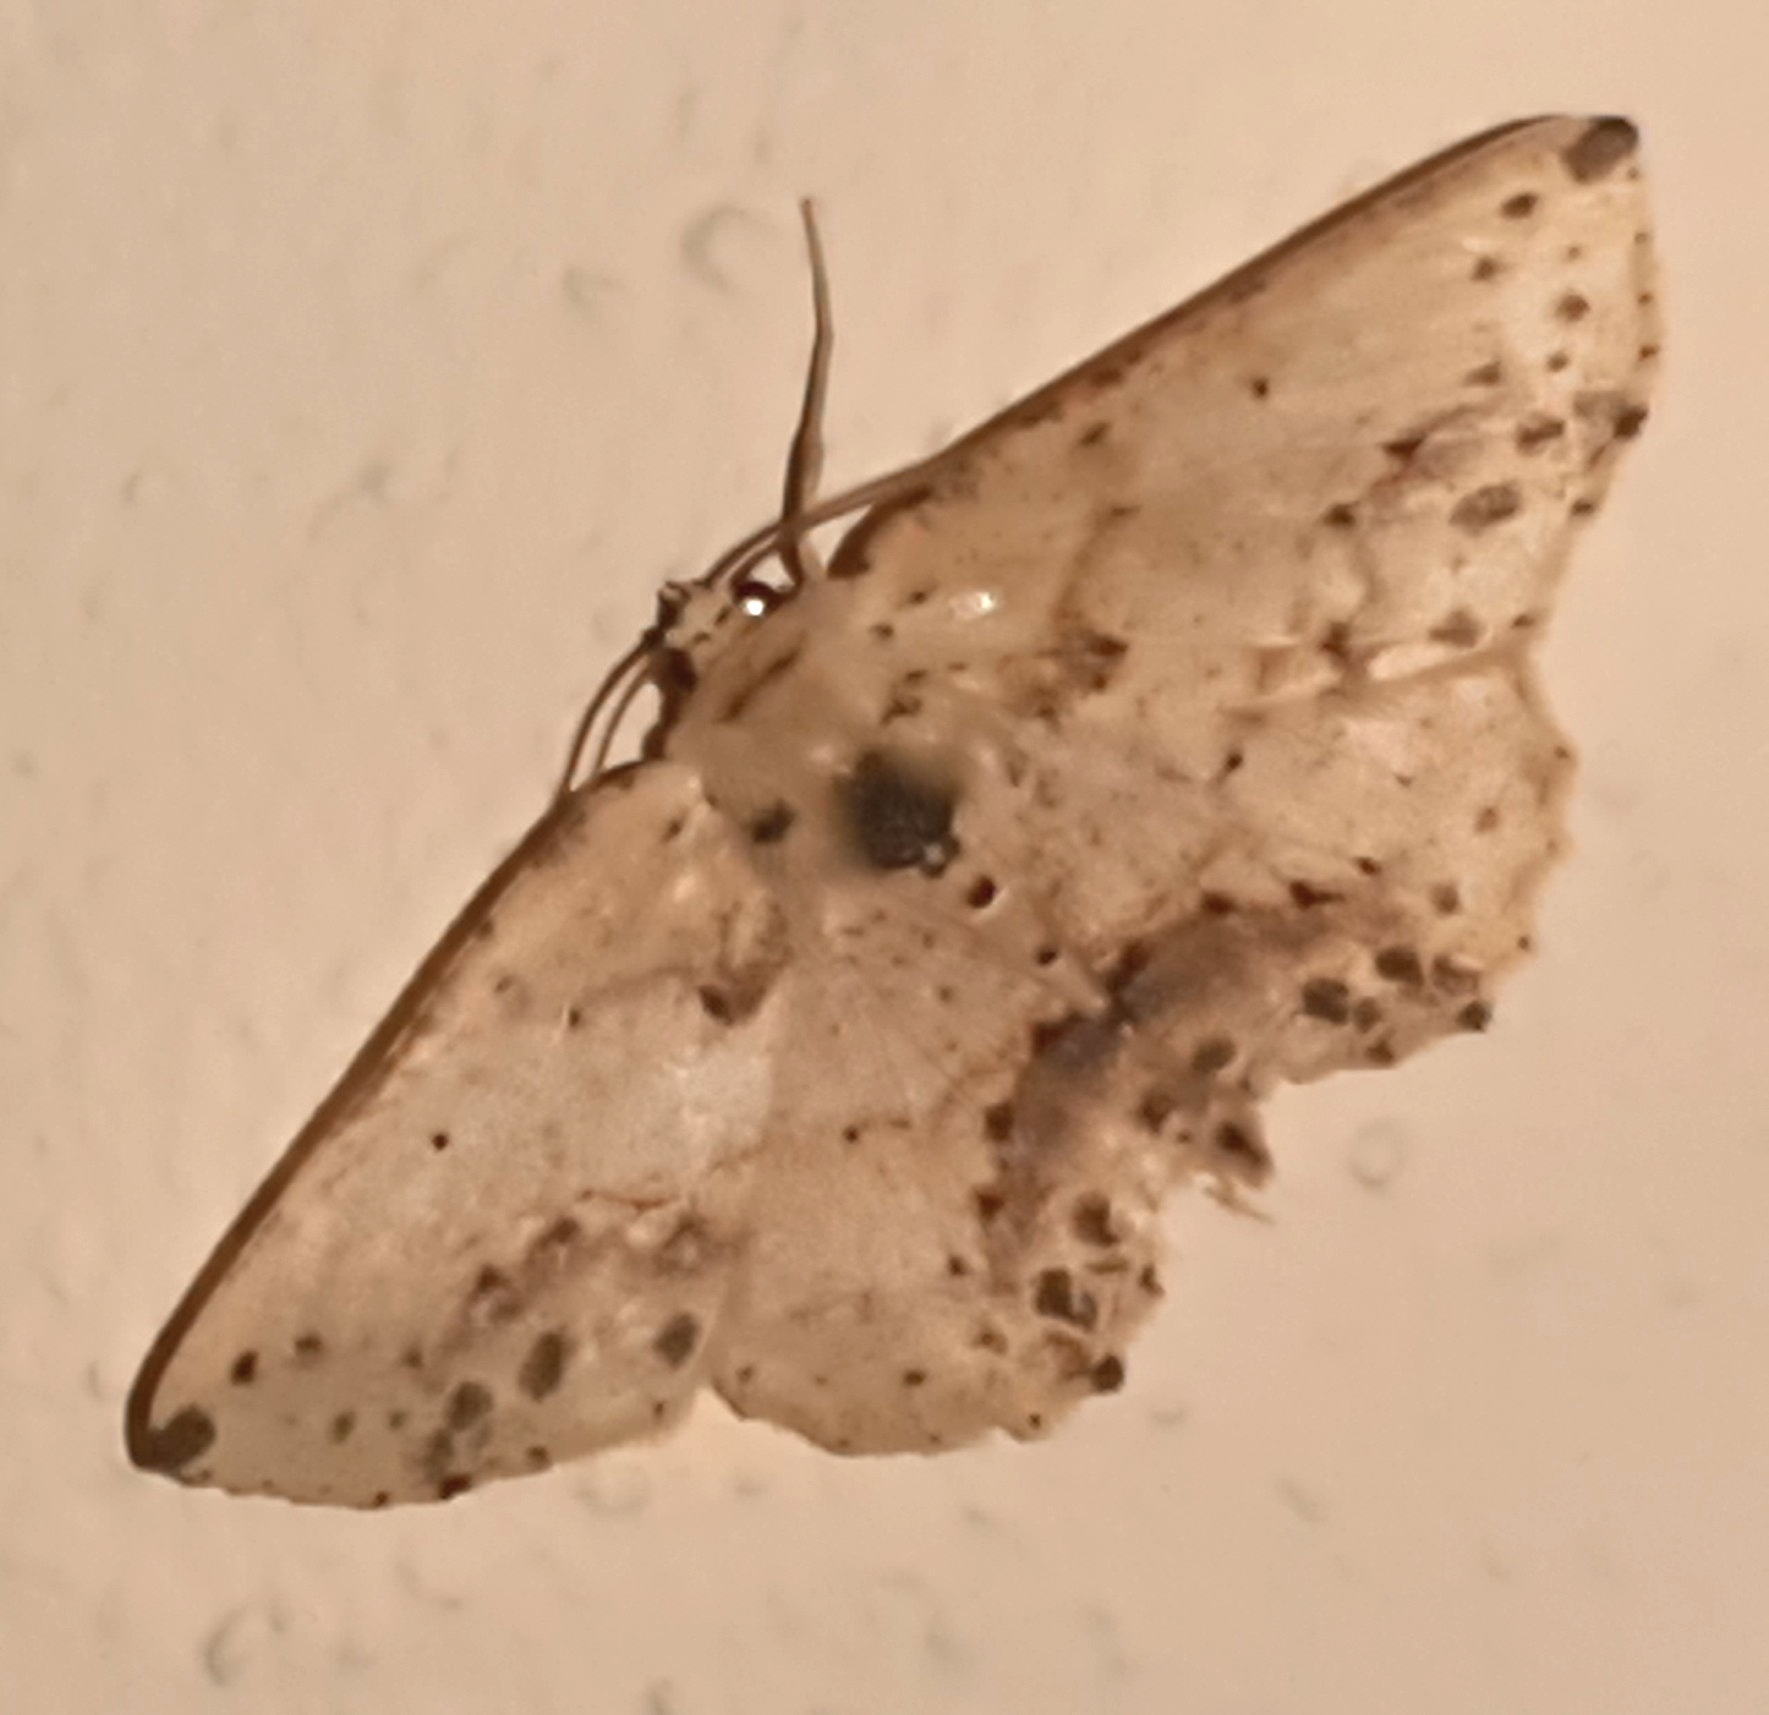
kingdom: Animalia
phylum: Arthropoda
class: Insecta
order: Lepidoptera
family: Geometridae
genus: Isochromodes
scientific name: Isochromodes bellona
